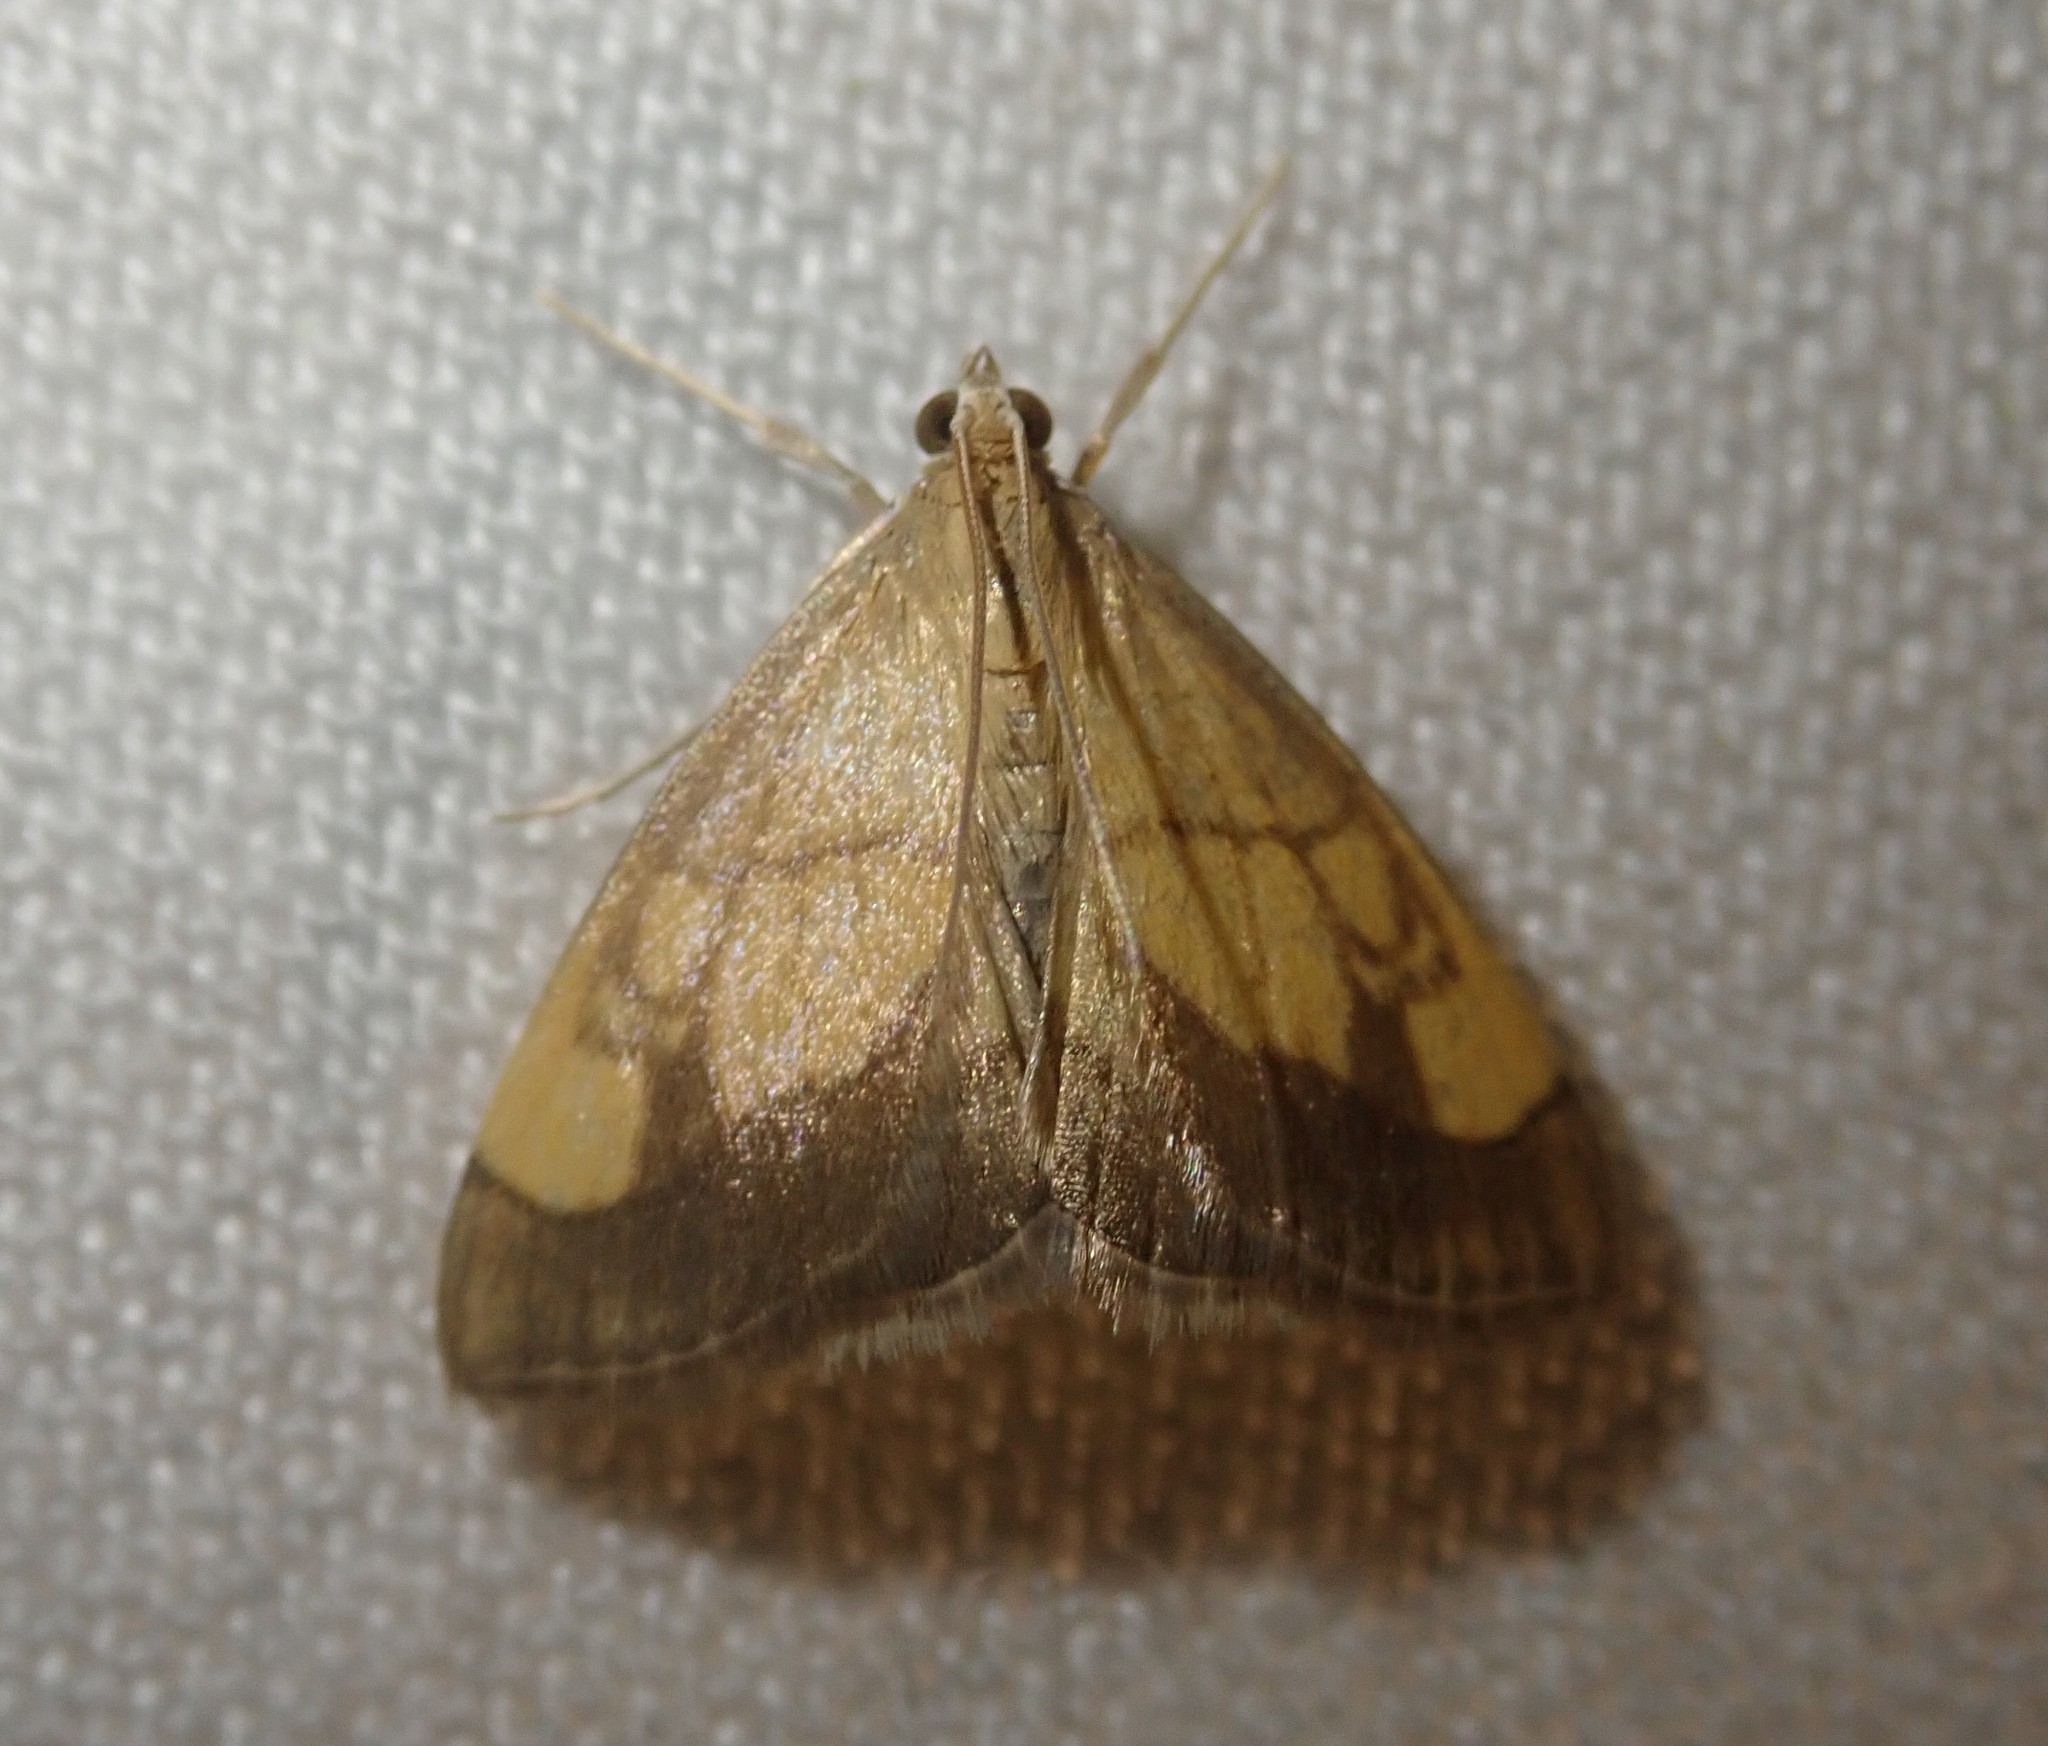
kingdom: Animalia
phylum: Arthropoda
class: Insecta
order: Lepidoptera
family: Crambidae
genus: Evergestis
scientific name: Evergestis limbata
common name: Dark bordered pearl
